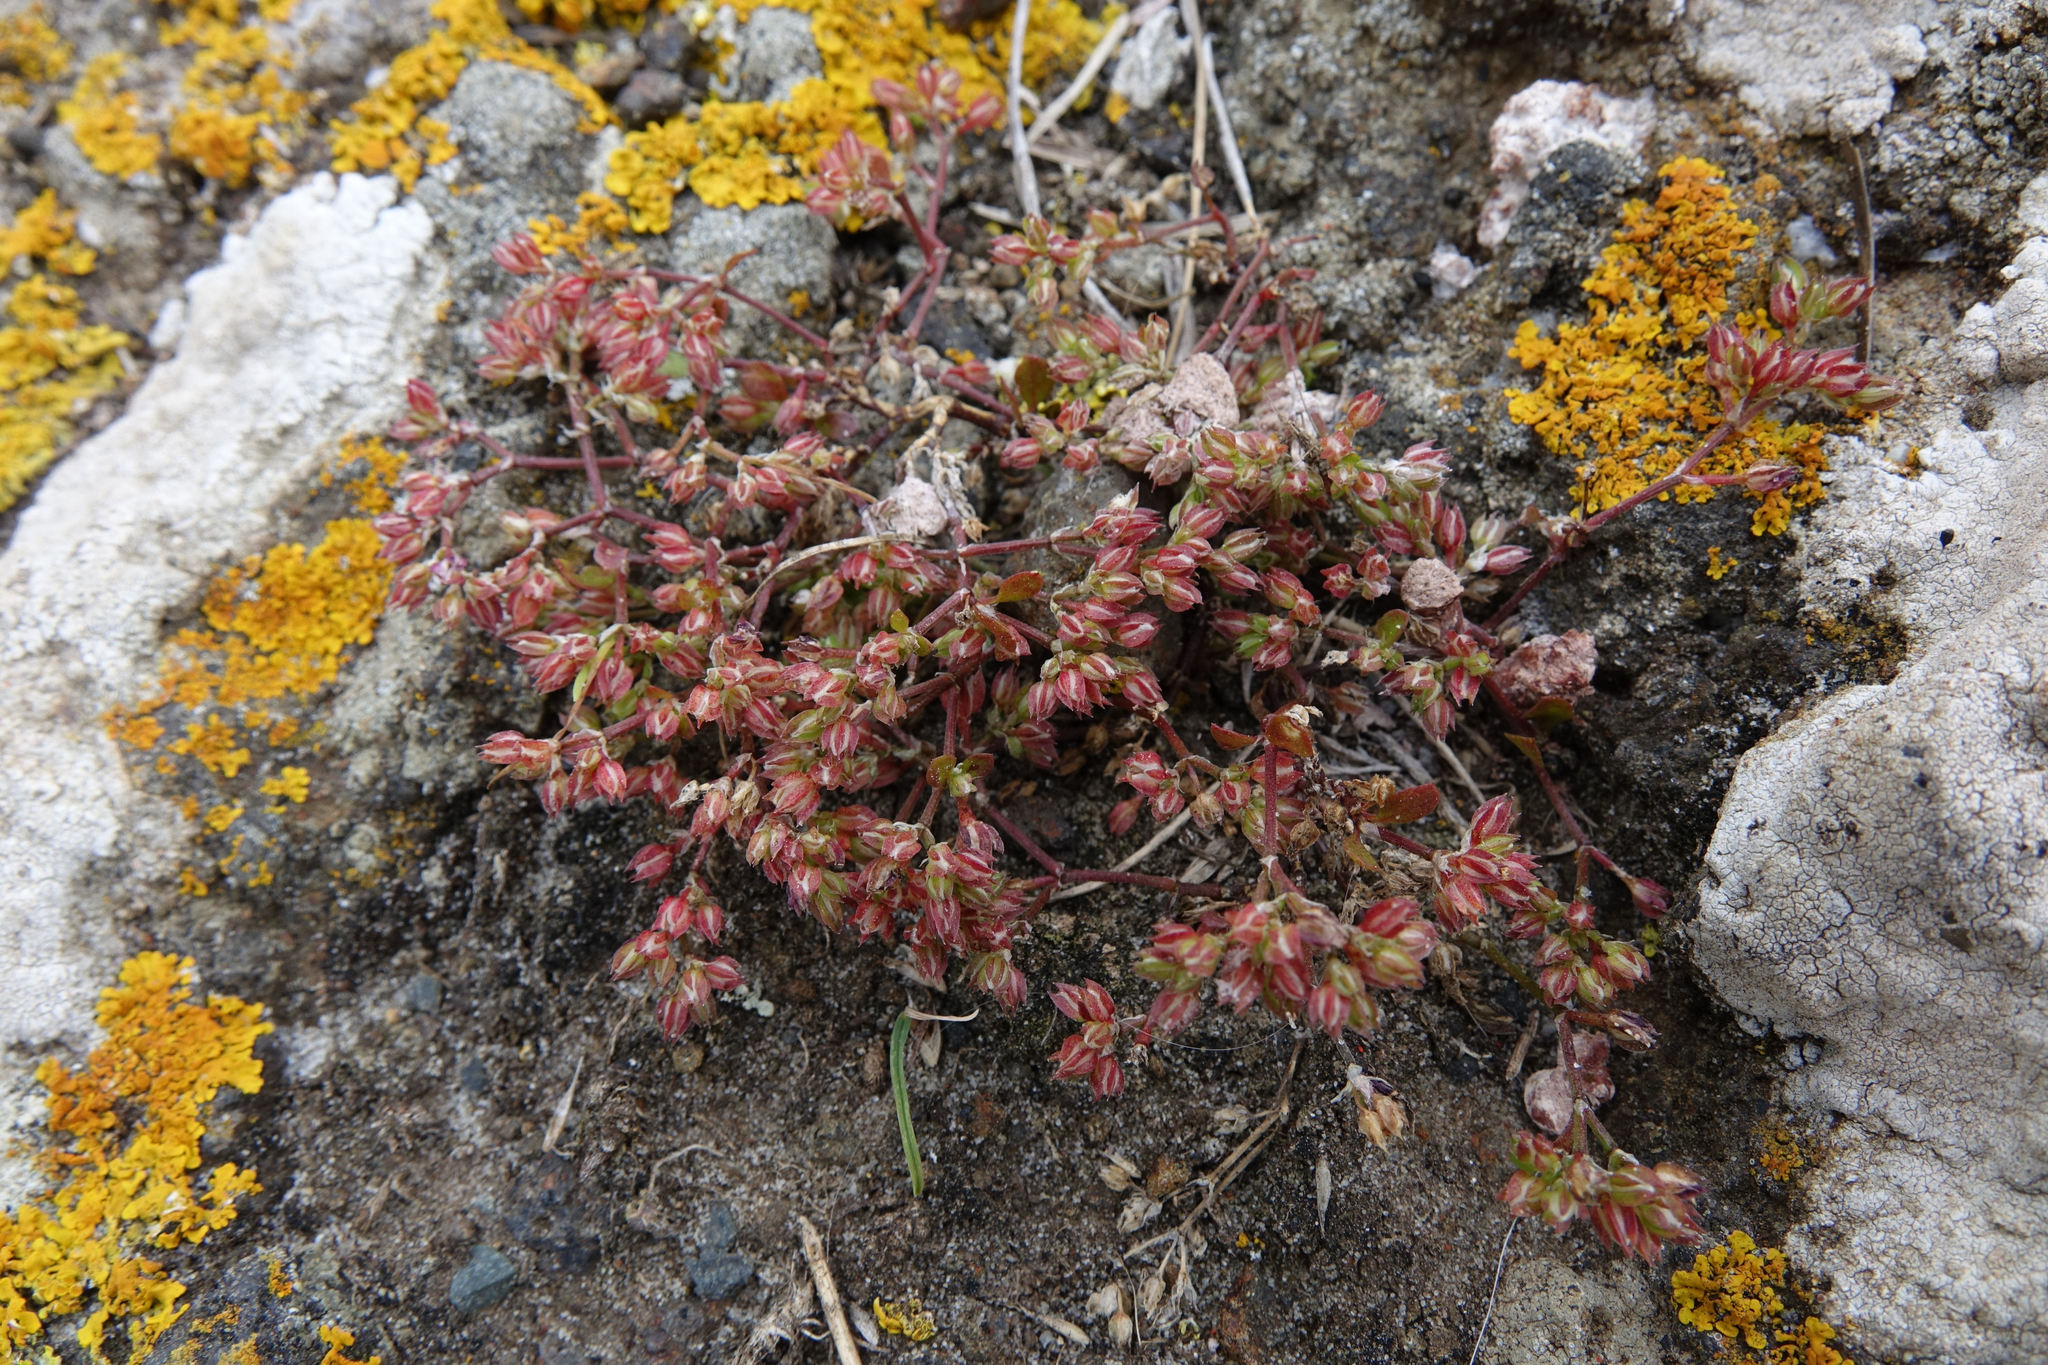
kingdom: Plantae
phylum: Tracheophyta
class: Magnoliopsida
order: Caryophyllales
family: Caryophyllaceae
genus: Polycarpon
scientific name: Polycarpon tetraphyllum
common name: Four-leaved all-seed
